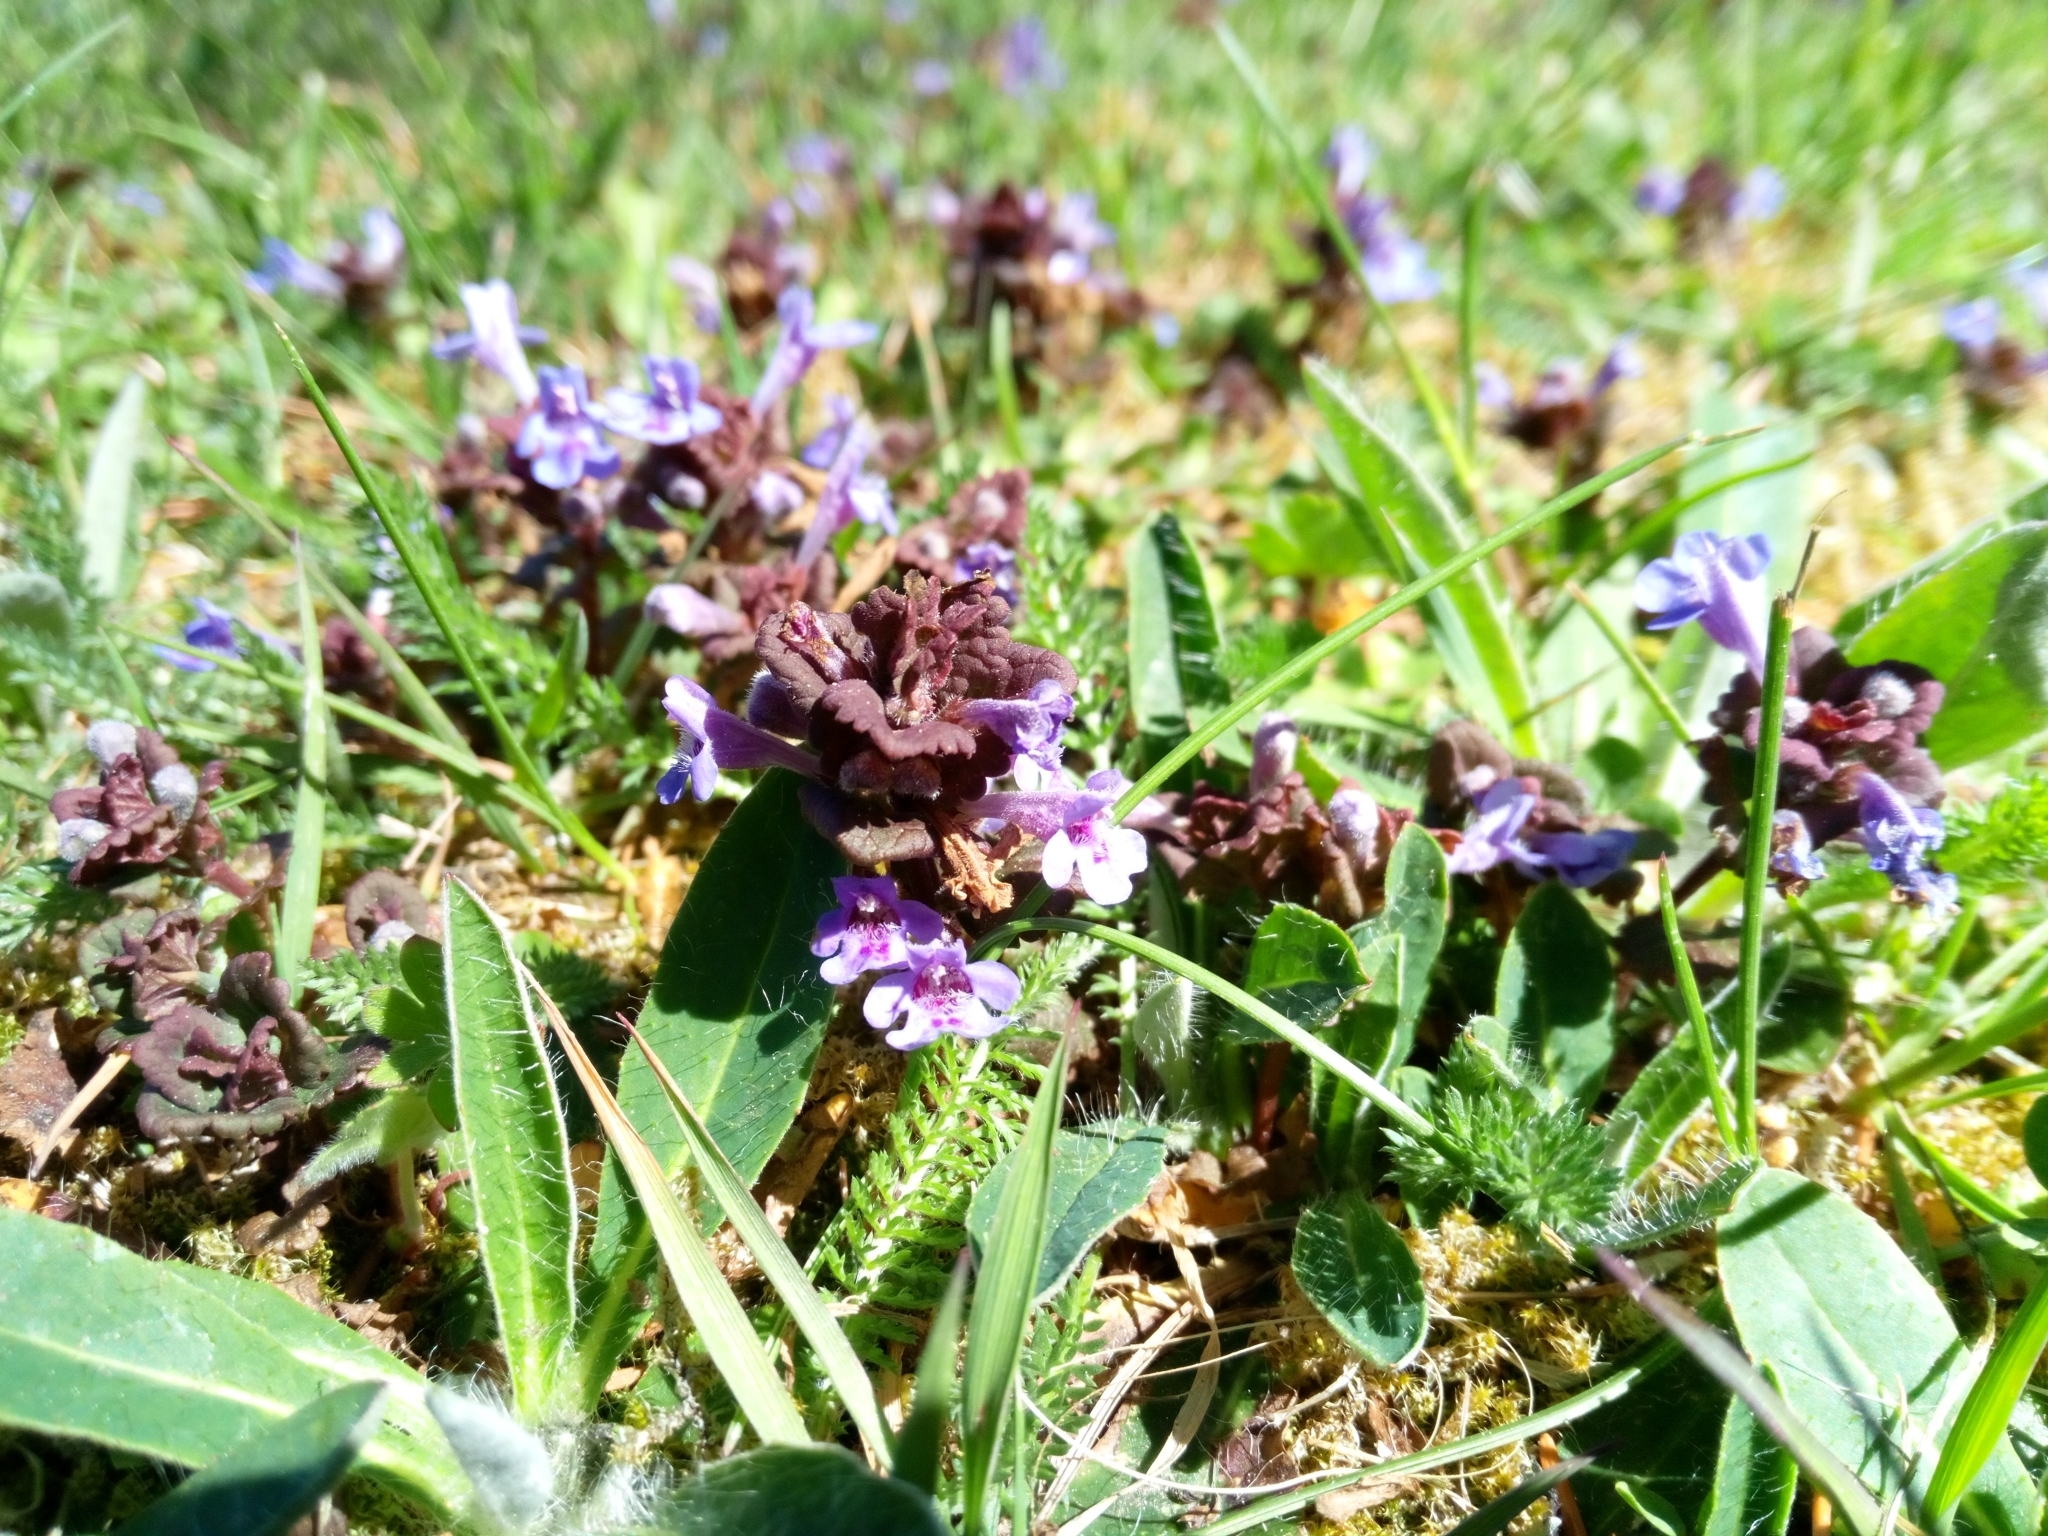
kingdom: Plantae
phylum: Tracheophyta
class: Magnoliopsida
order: Lamiales
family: Lamiaceae
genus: Glechoma
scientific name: Glechoma hederacea
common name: Ground ivy
